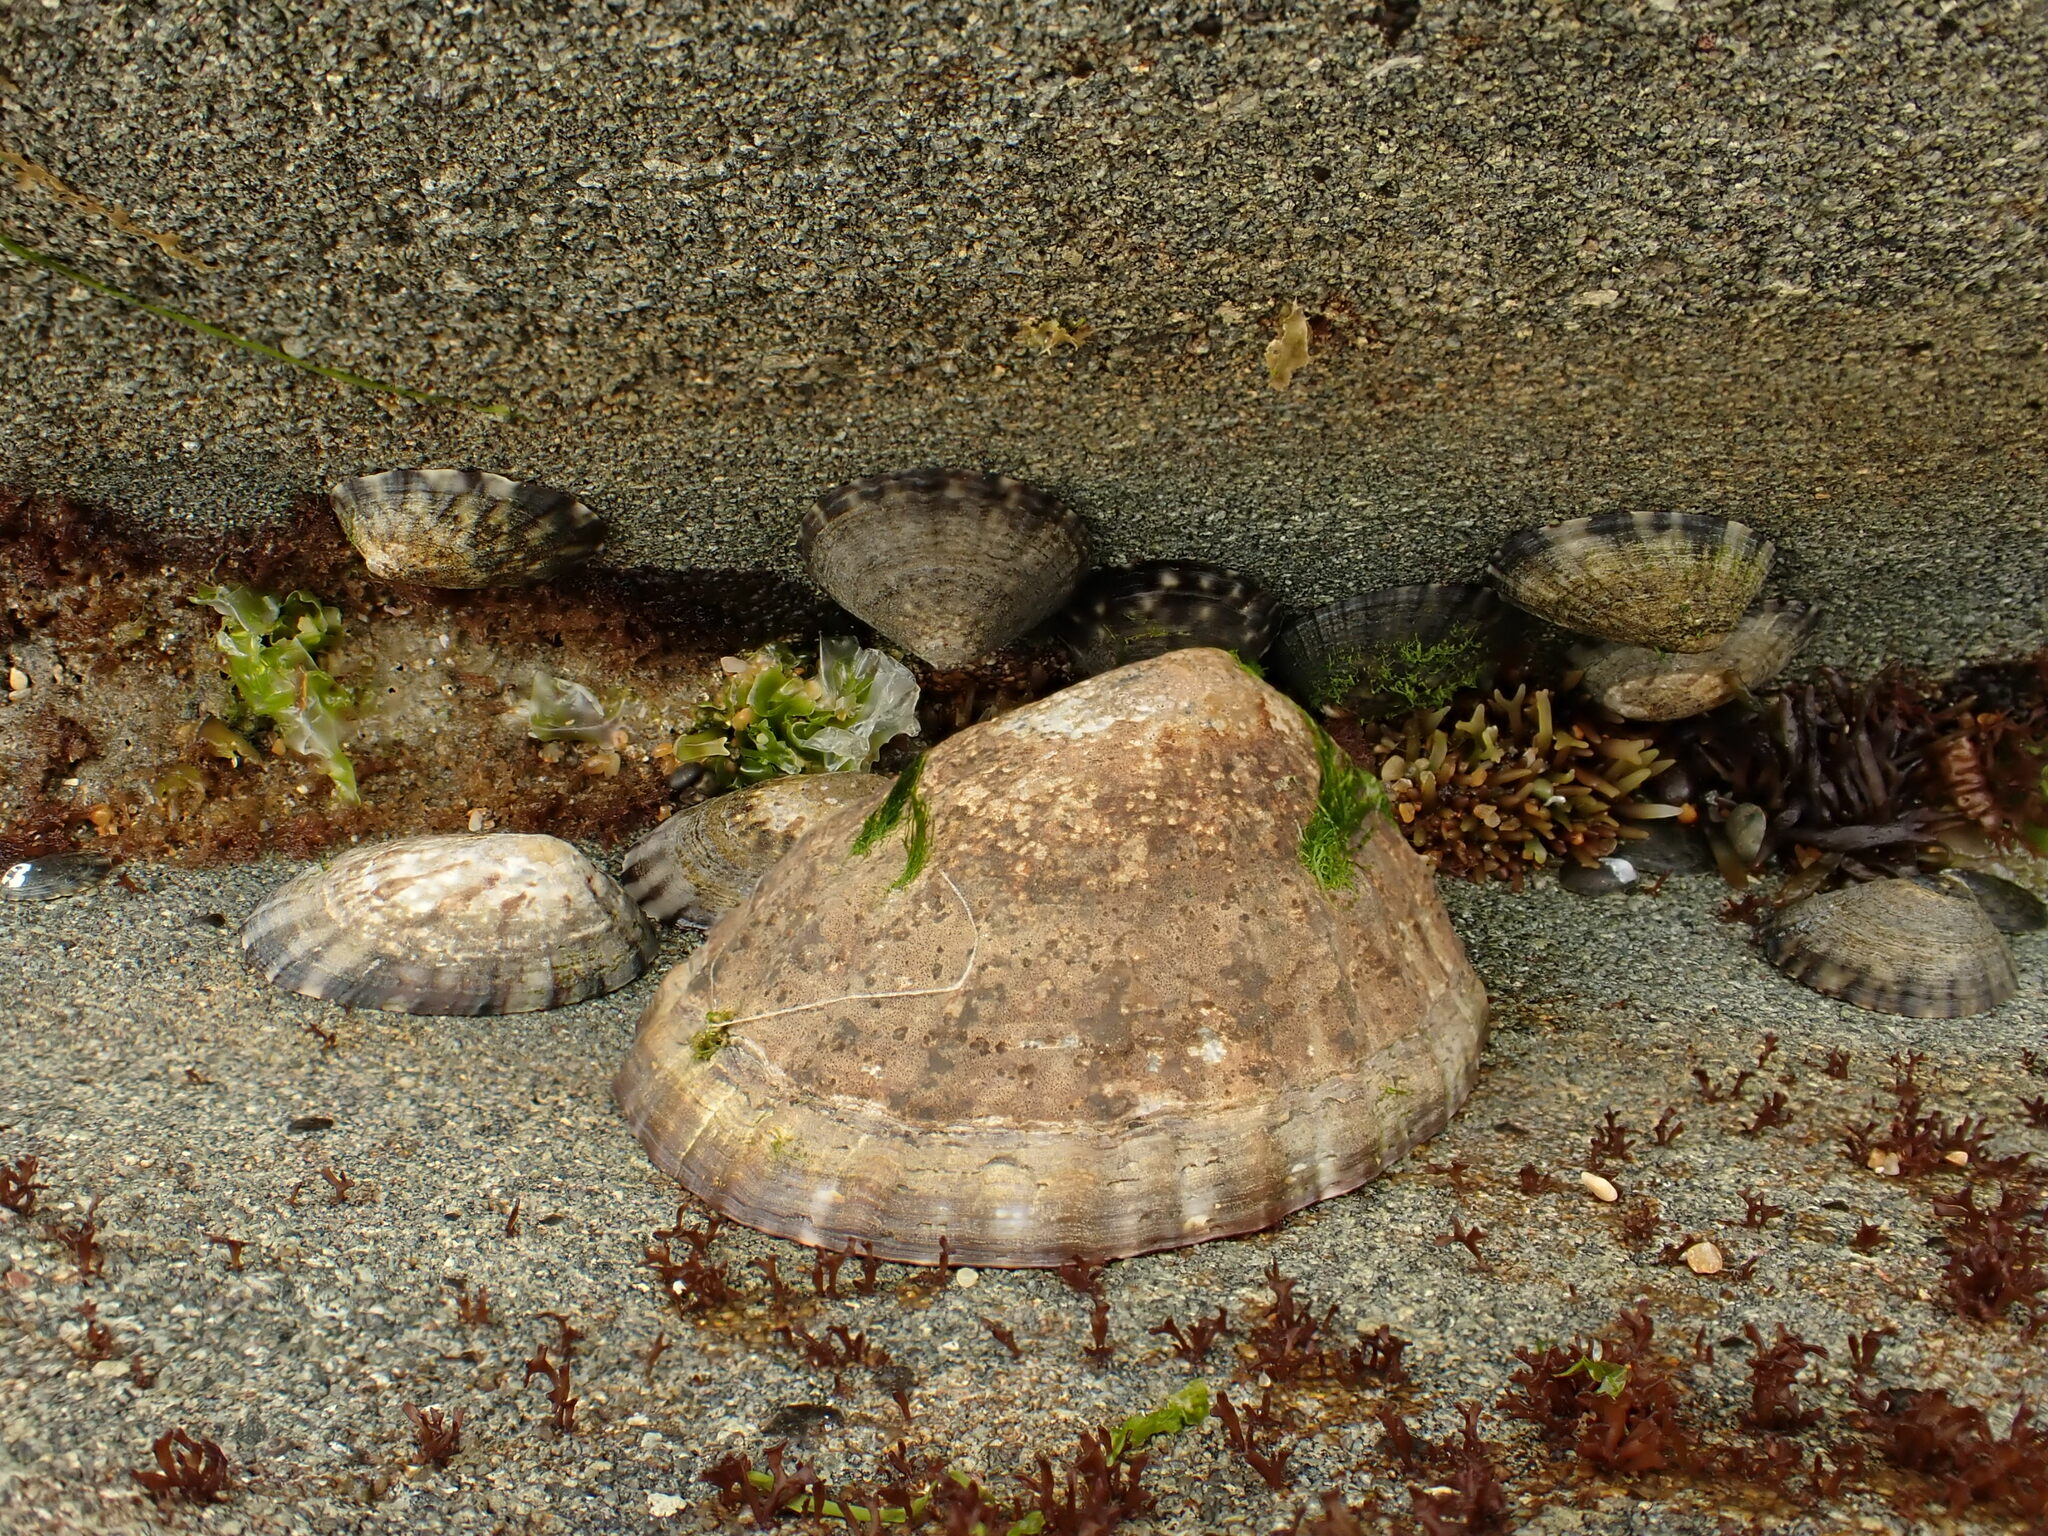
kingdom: Animalia
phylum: Mollusca
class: Gastropoda
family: Nacellidae
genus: Cellana
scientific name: Cellana strigilis
